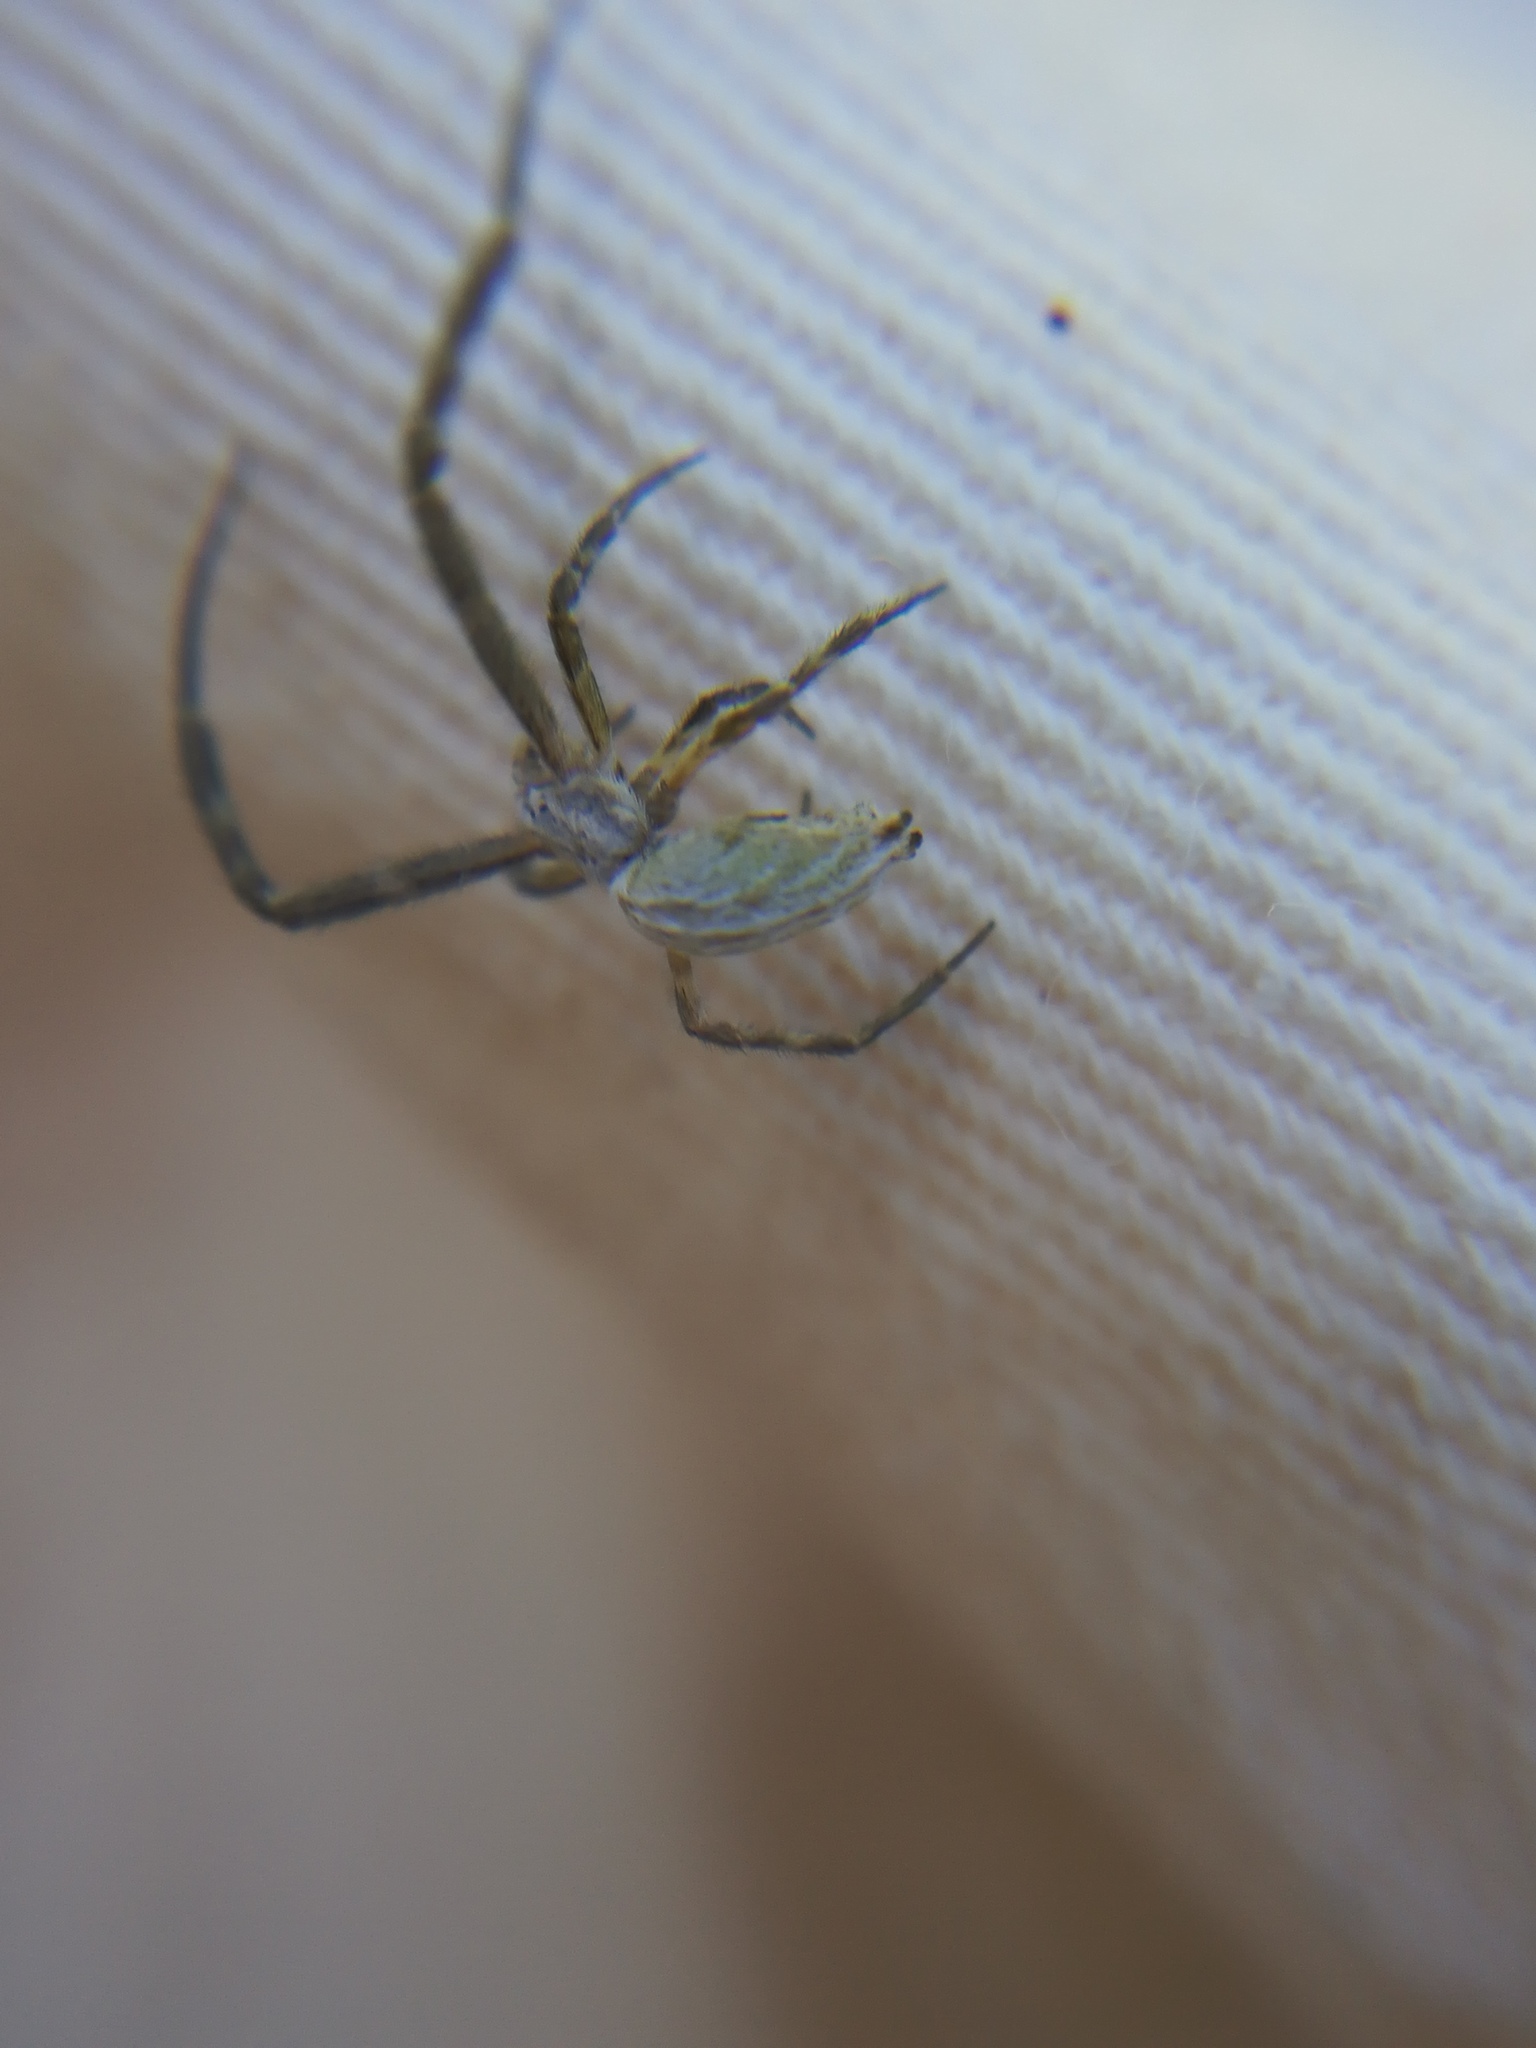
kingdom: Animalia
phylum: Arthropoda
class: Arachnida
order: Araneae
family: Uloboridae
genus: Uloborus
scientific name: Uloborus walckenaerius
